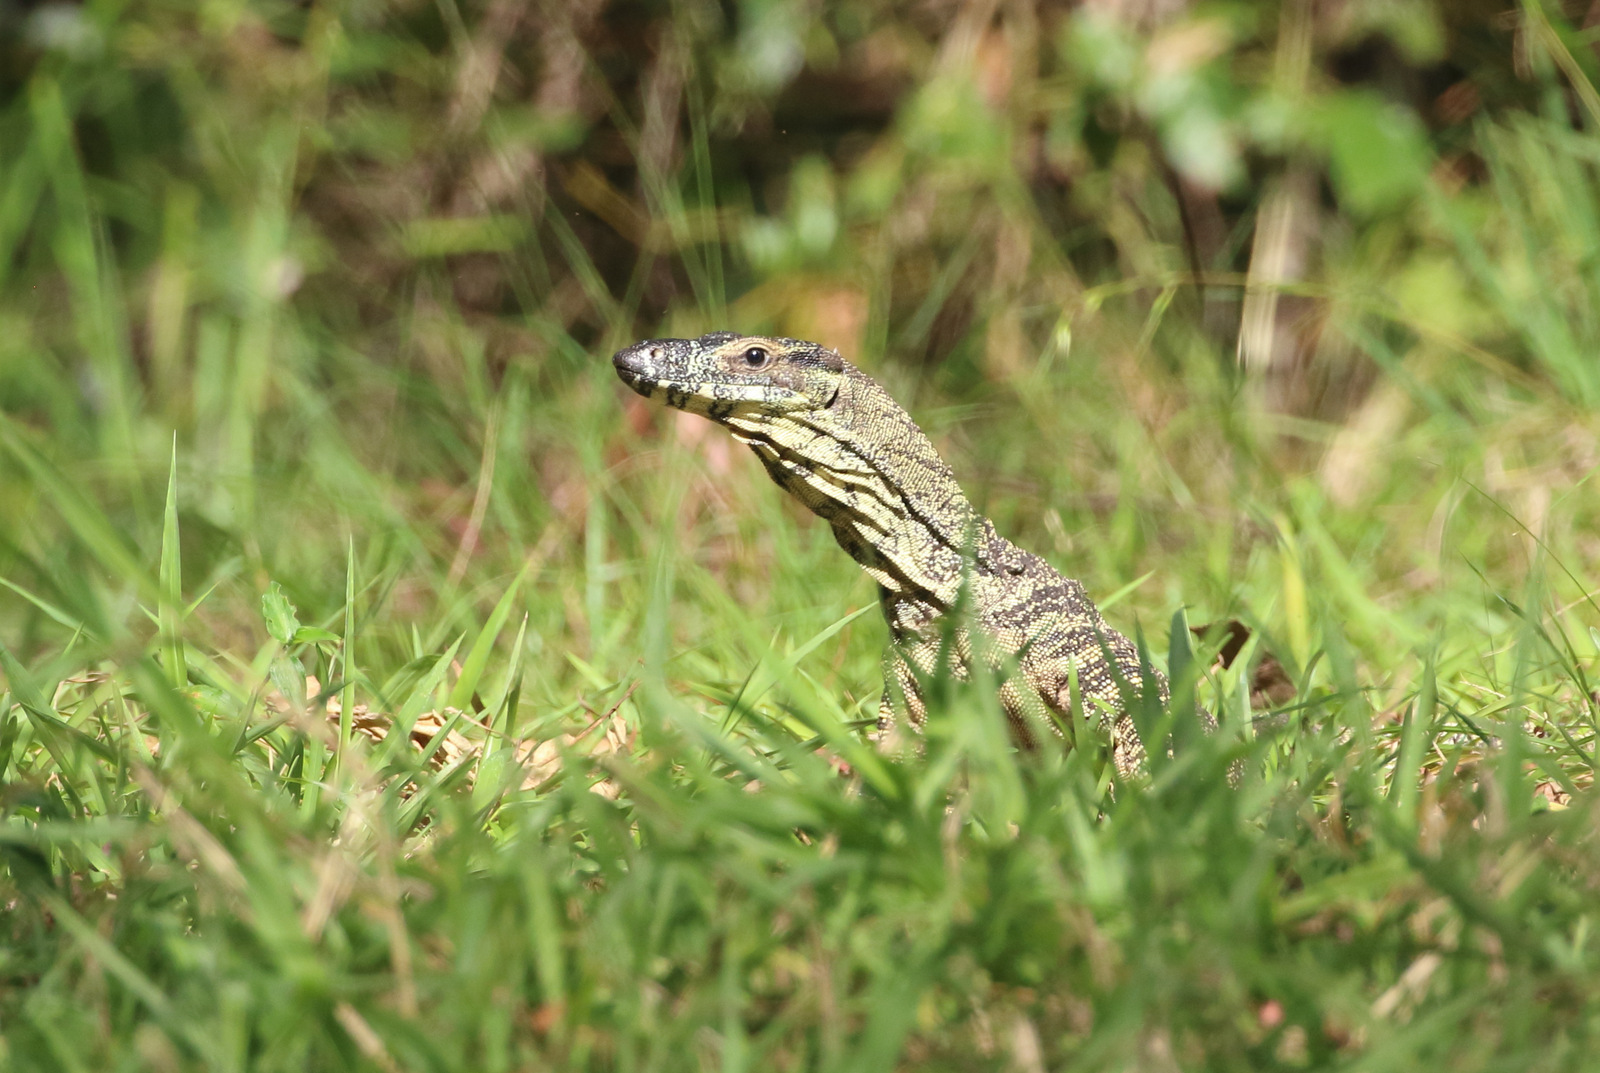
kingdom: Animalia
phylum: Chordata
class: Squamata
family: Varanidae
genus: Varanus
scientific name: Varanus varius
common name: Lace monitor
